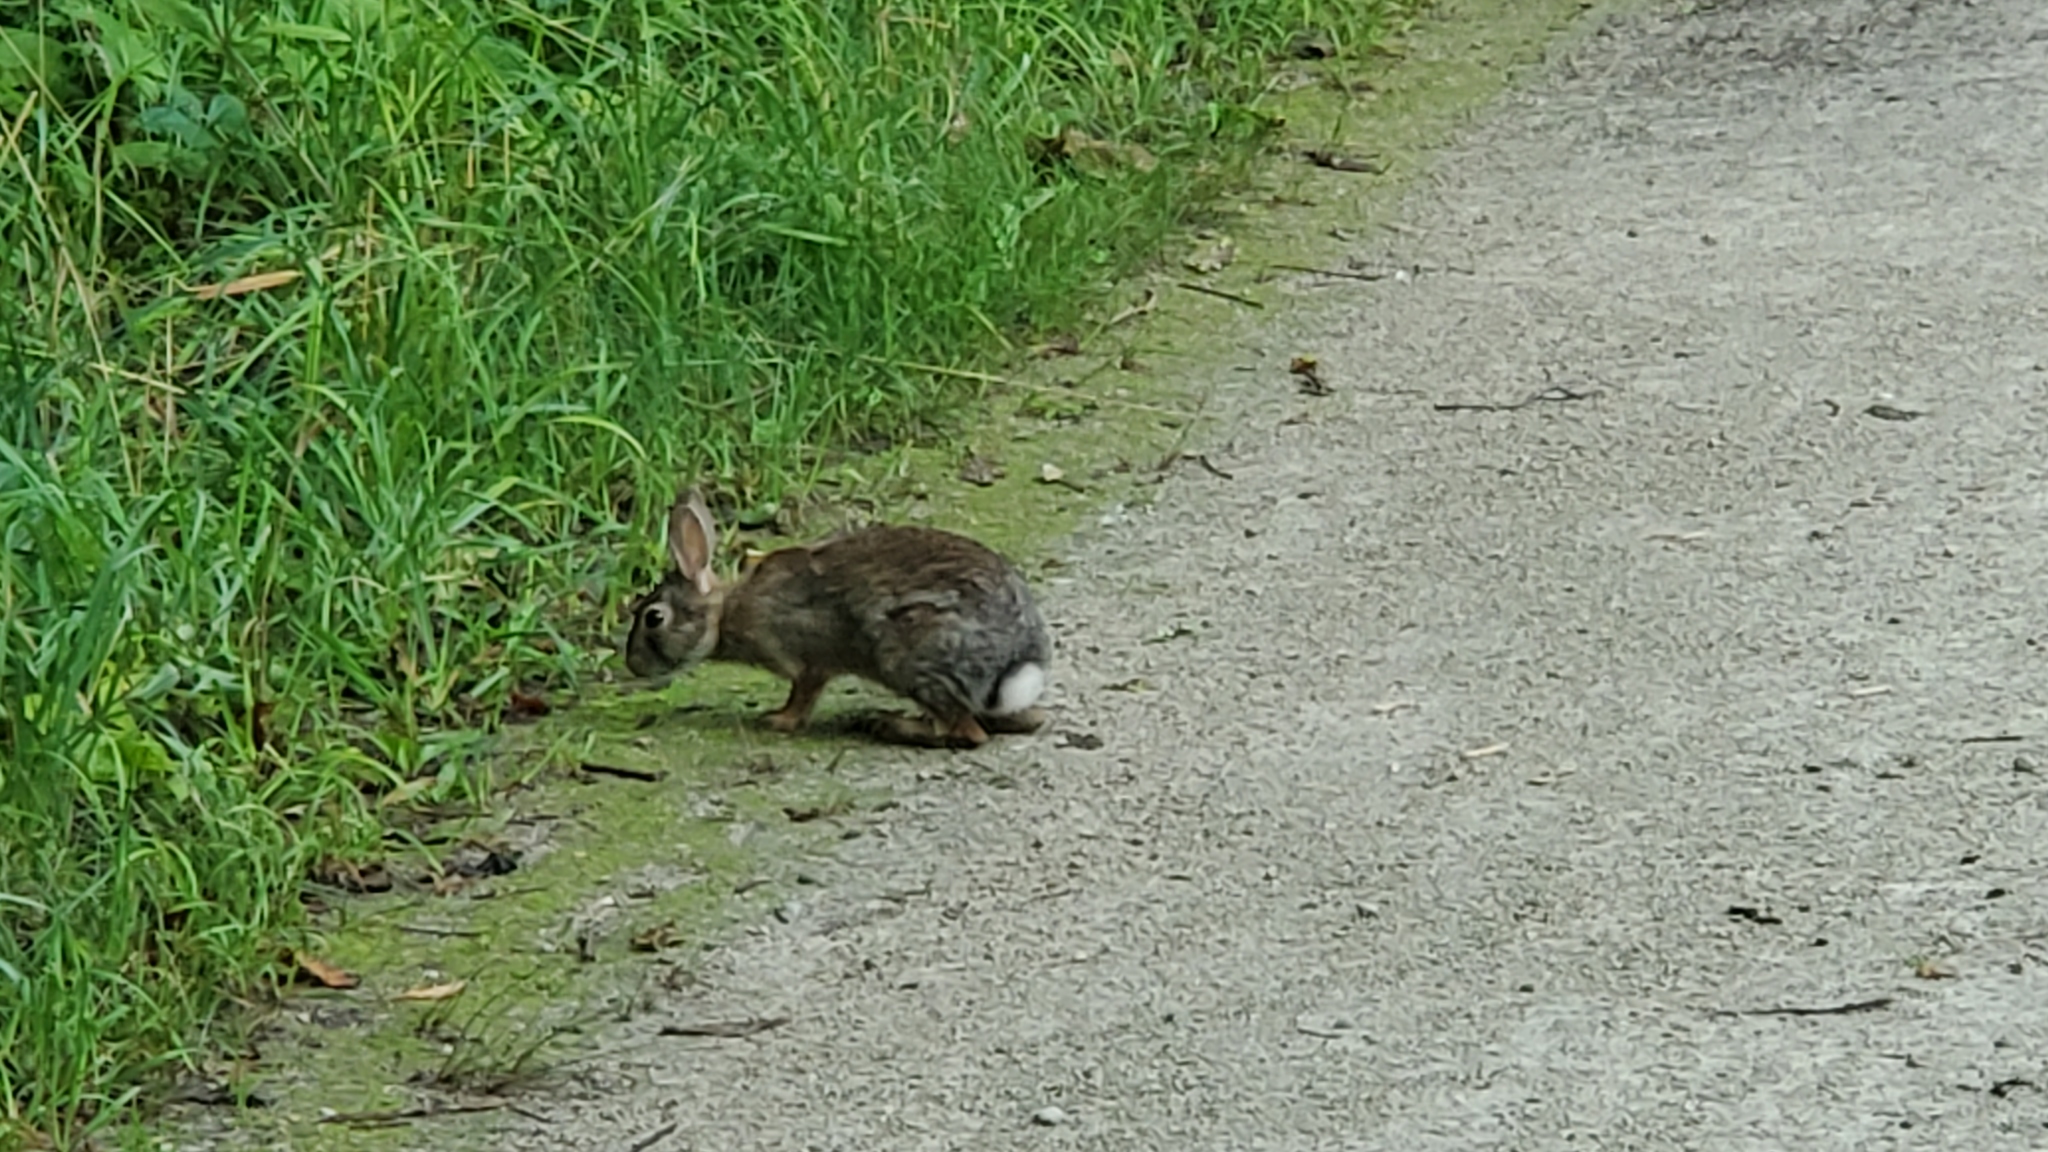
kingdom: Animalia
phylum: Chordata
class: Mammalia
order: Lagomorpha
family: Leporidae
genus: Sylvilagus
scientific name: Sylvilagus floridanus
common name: Eastern cottontail
